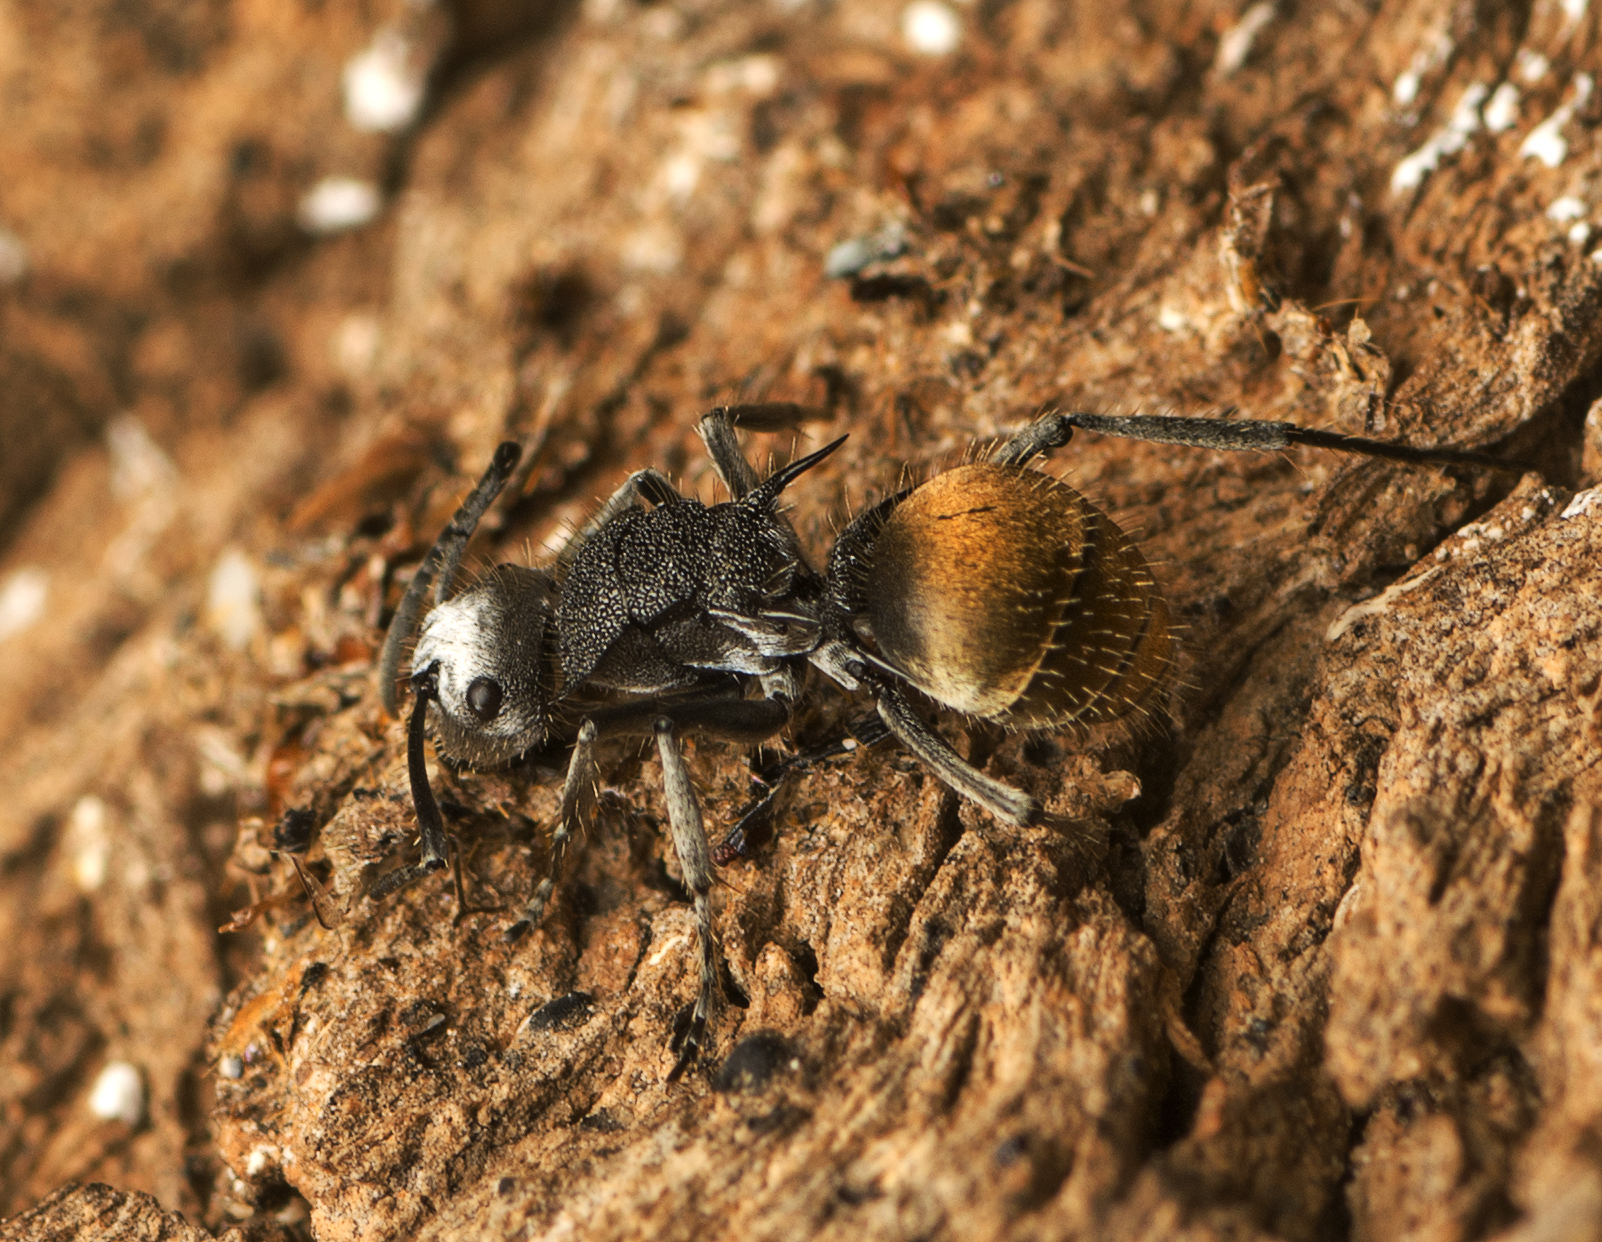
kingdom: Animalia
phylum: Arthropoda
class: Insecta
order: Hymenoptera
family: Formicidae
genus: Polyrhachis
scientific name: Polyrhachis senilis
